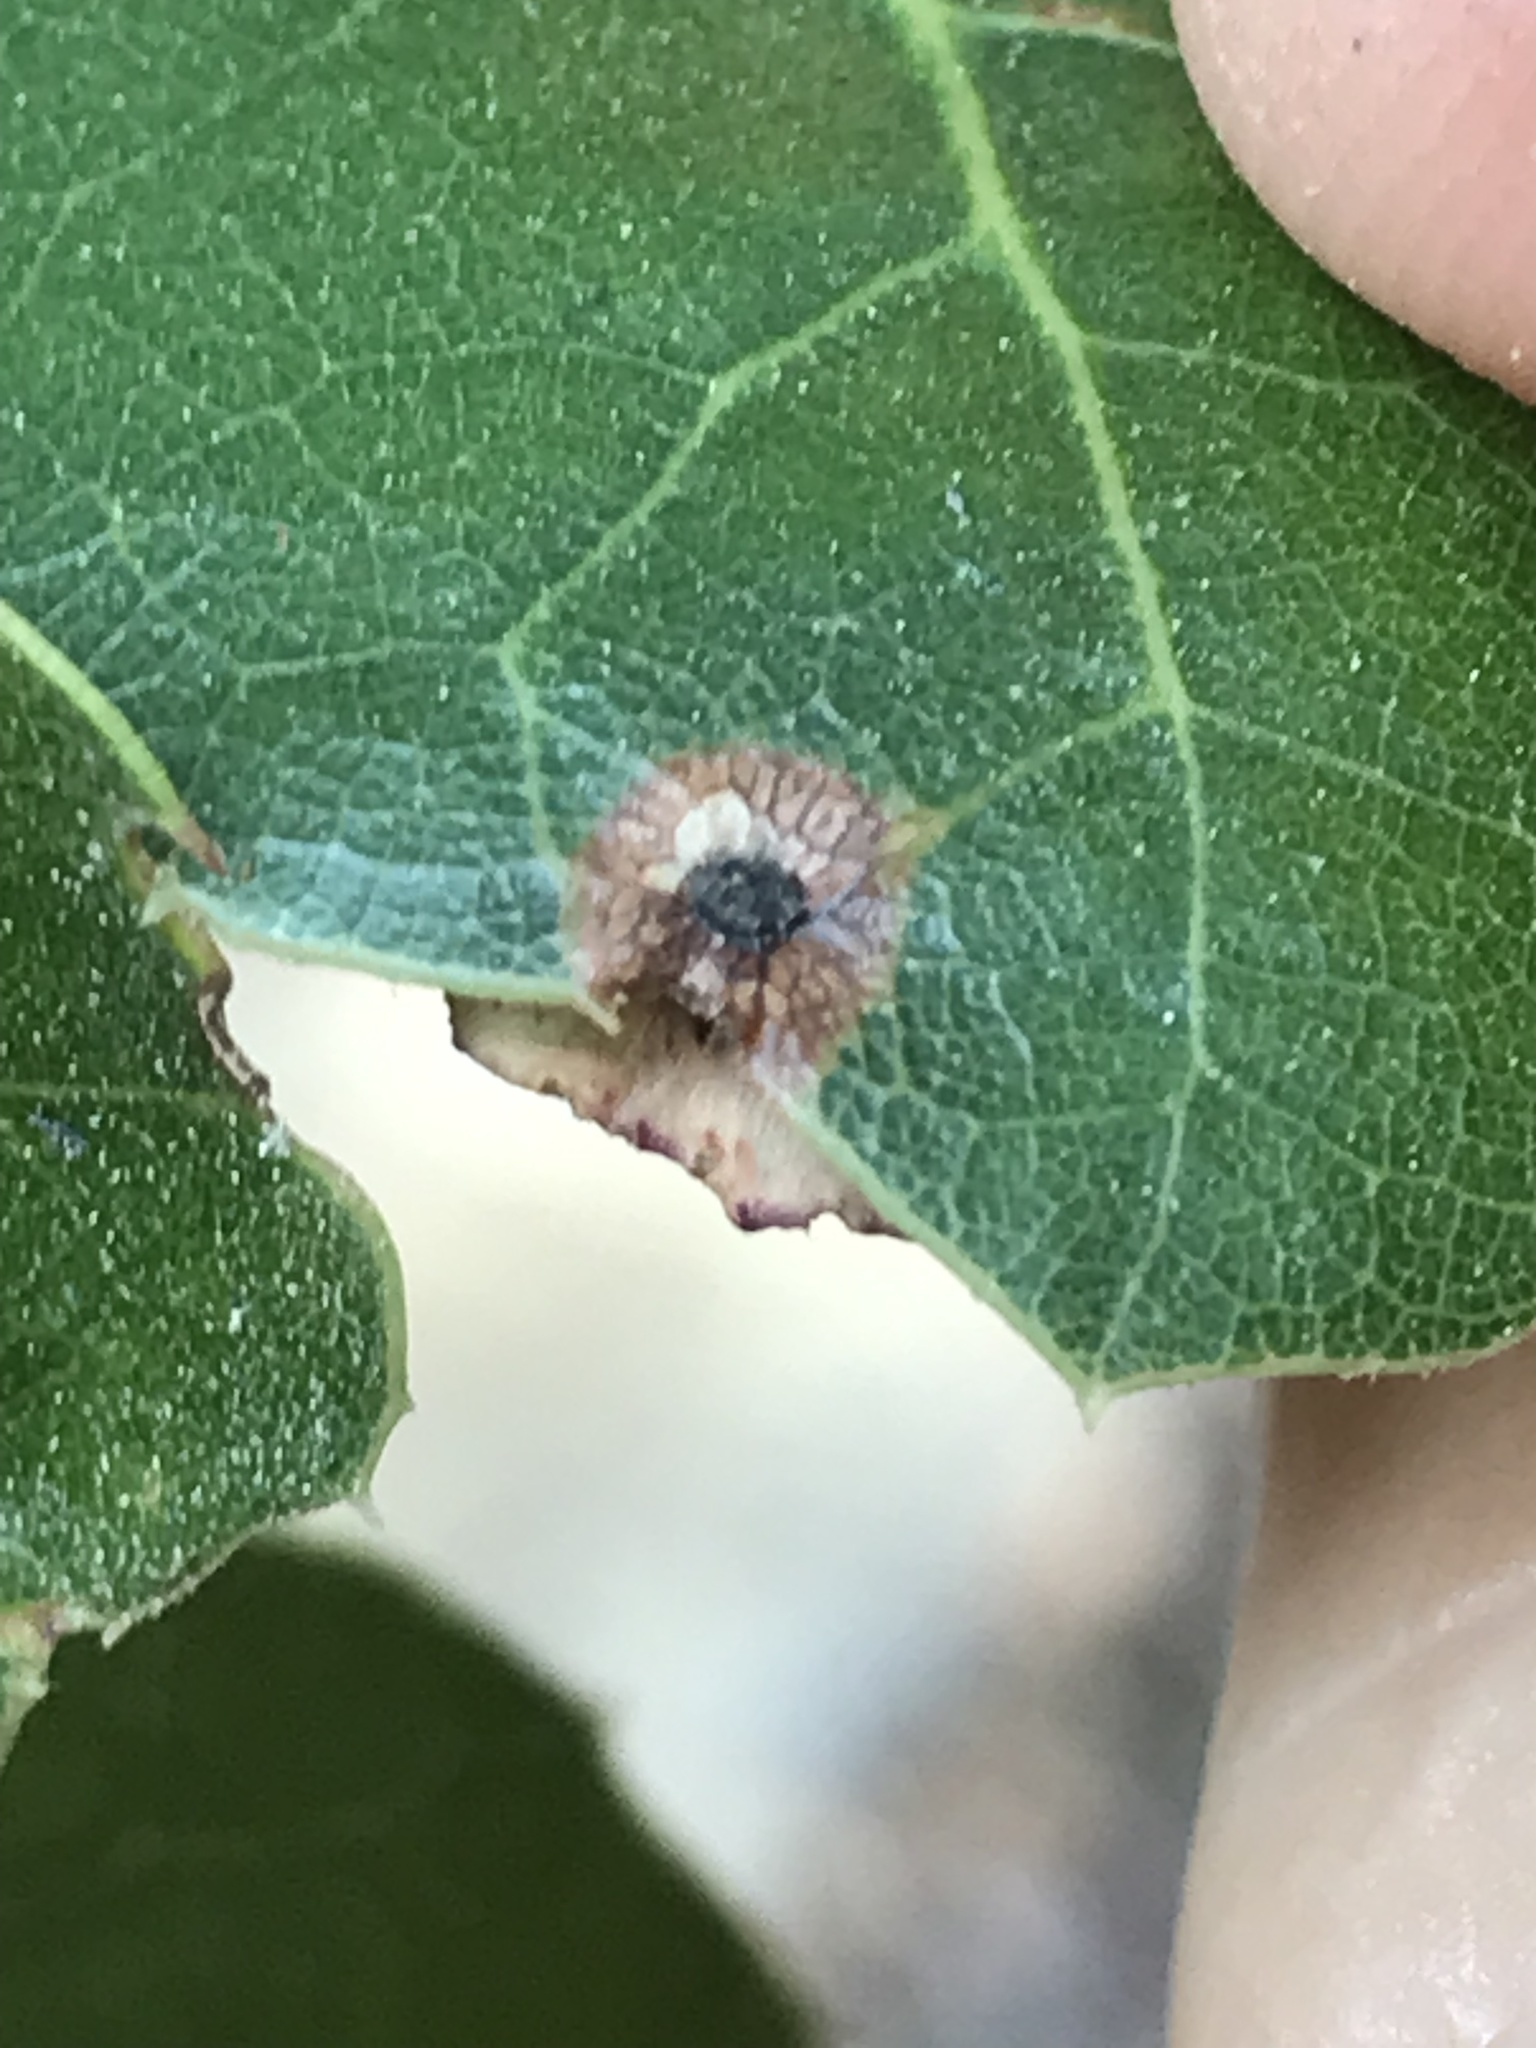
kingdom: Animalia
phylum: Arthropoda
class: Insecta
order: Hymenoptera
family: Cynipidae
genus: Amphibolips
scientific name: Amphibolips quercuspomiformis
